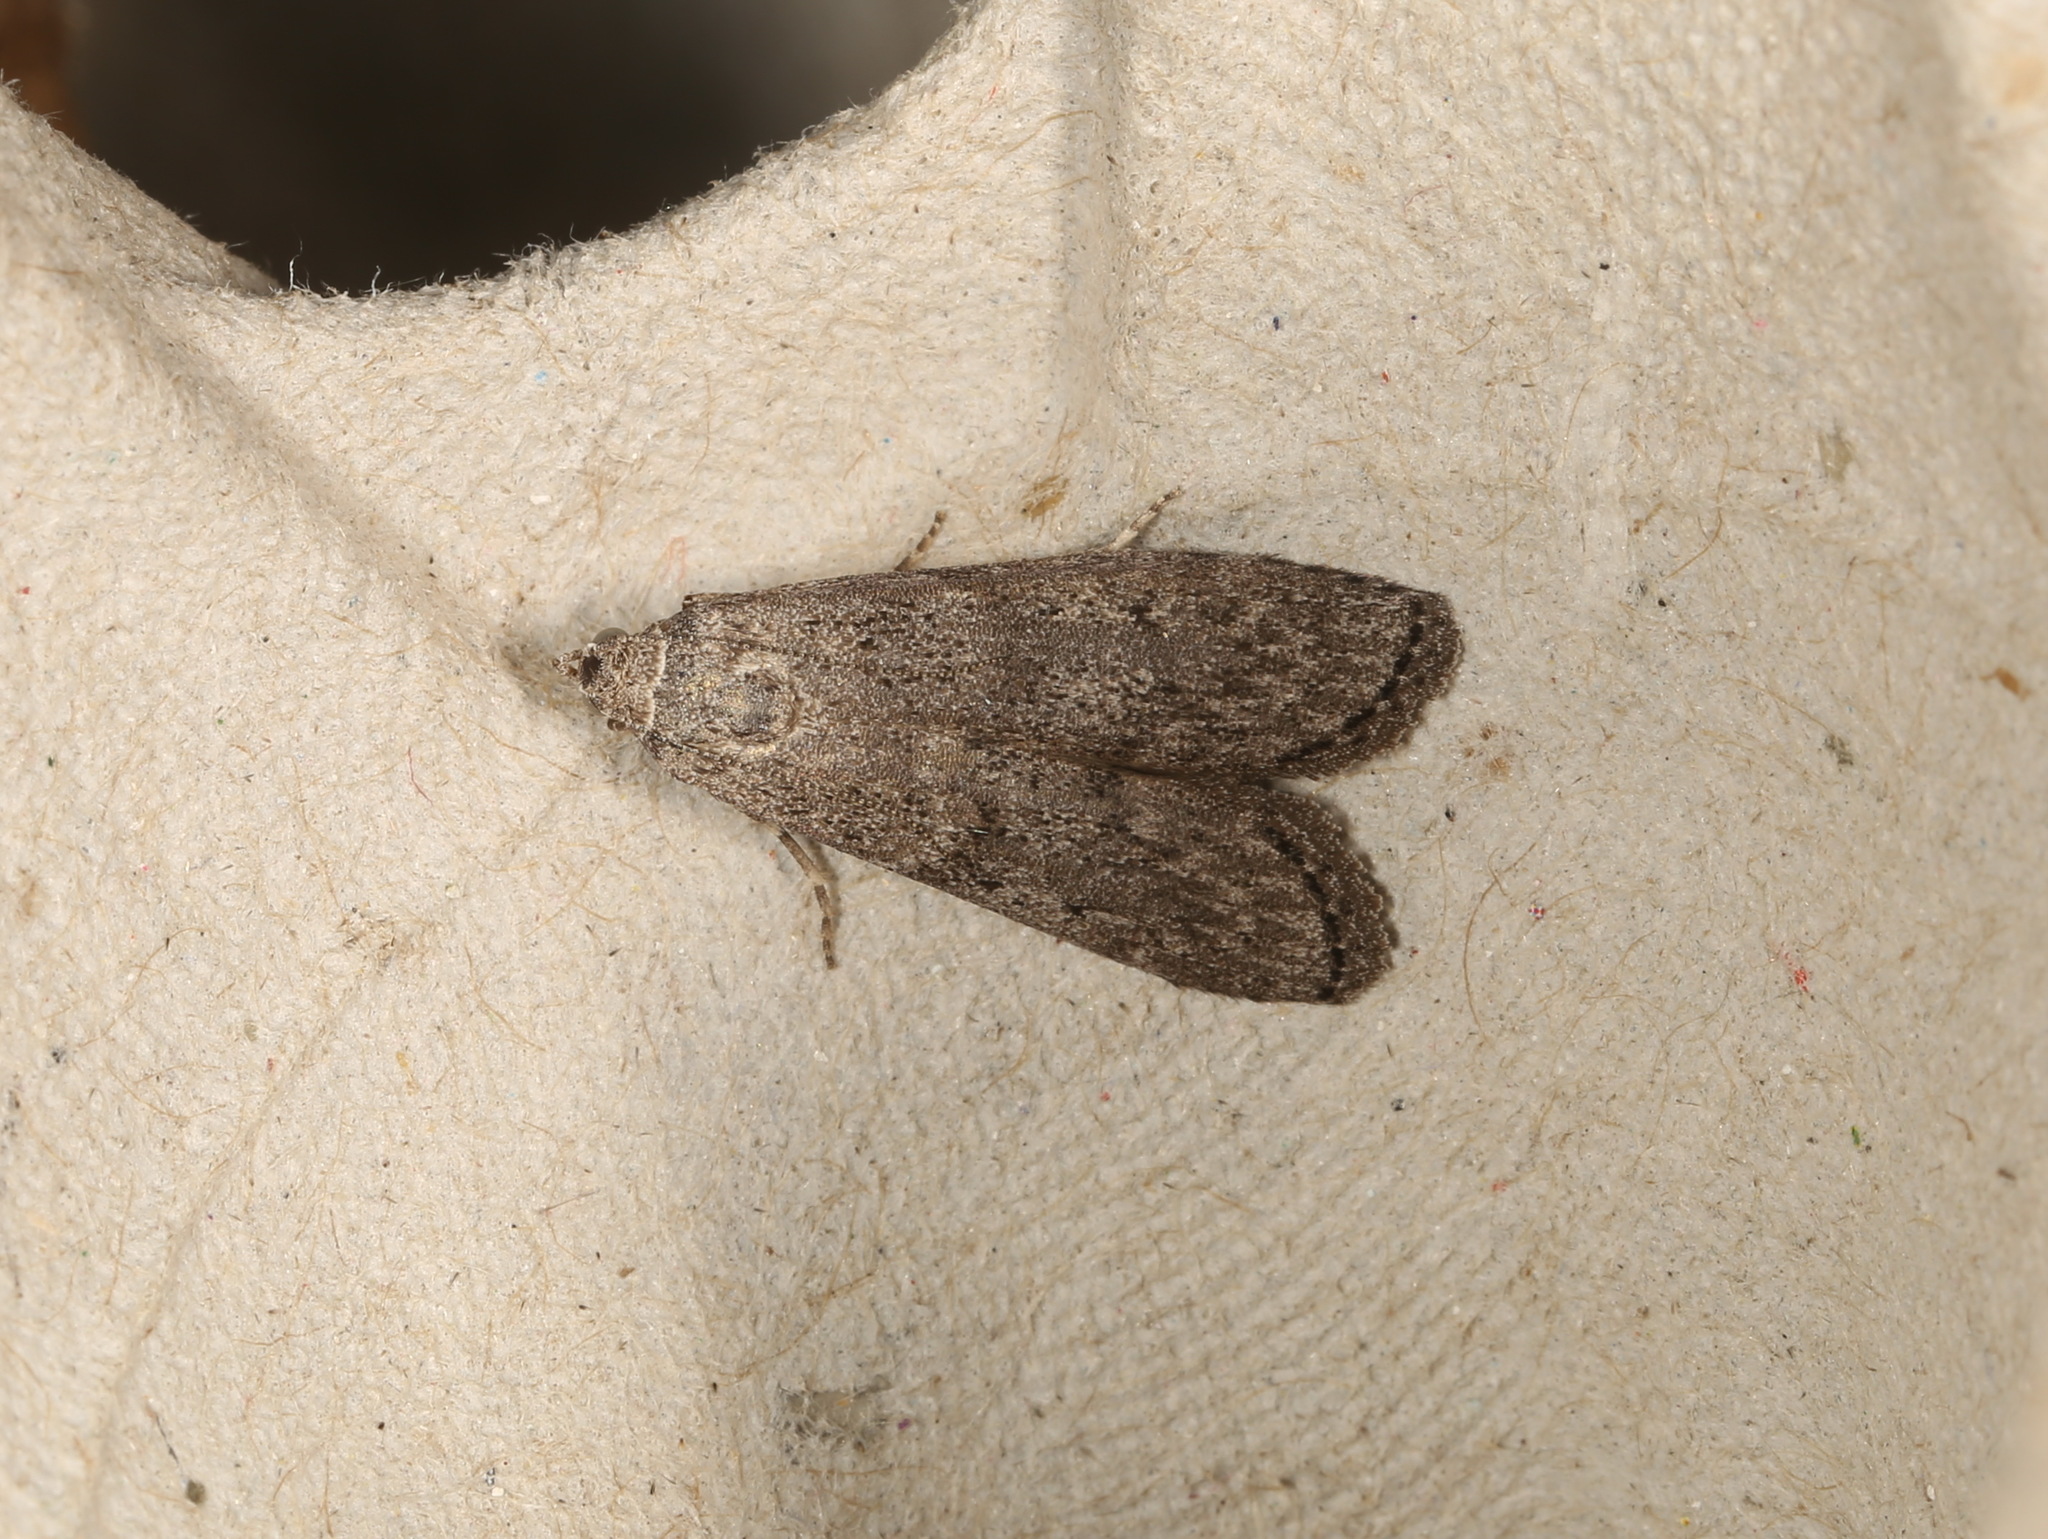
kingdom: Animalia
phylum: Arthropoda
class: Insecta
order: Lepidoptera
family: Pyralidae
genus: Heteromicta
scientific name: Heteromicta pachytera
